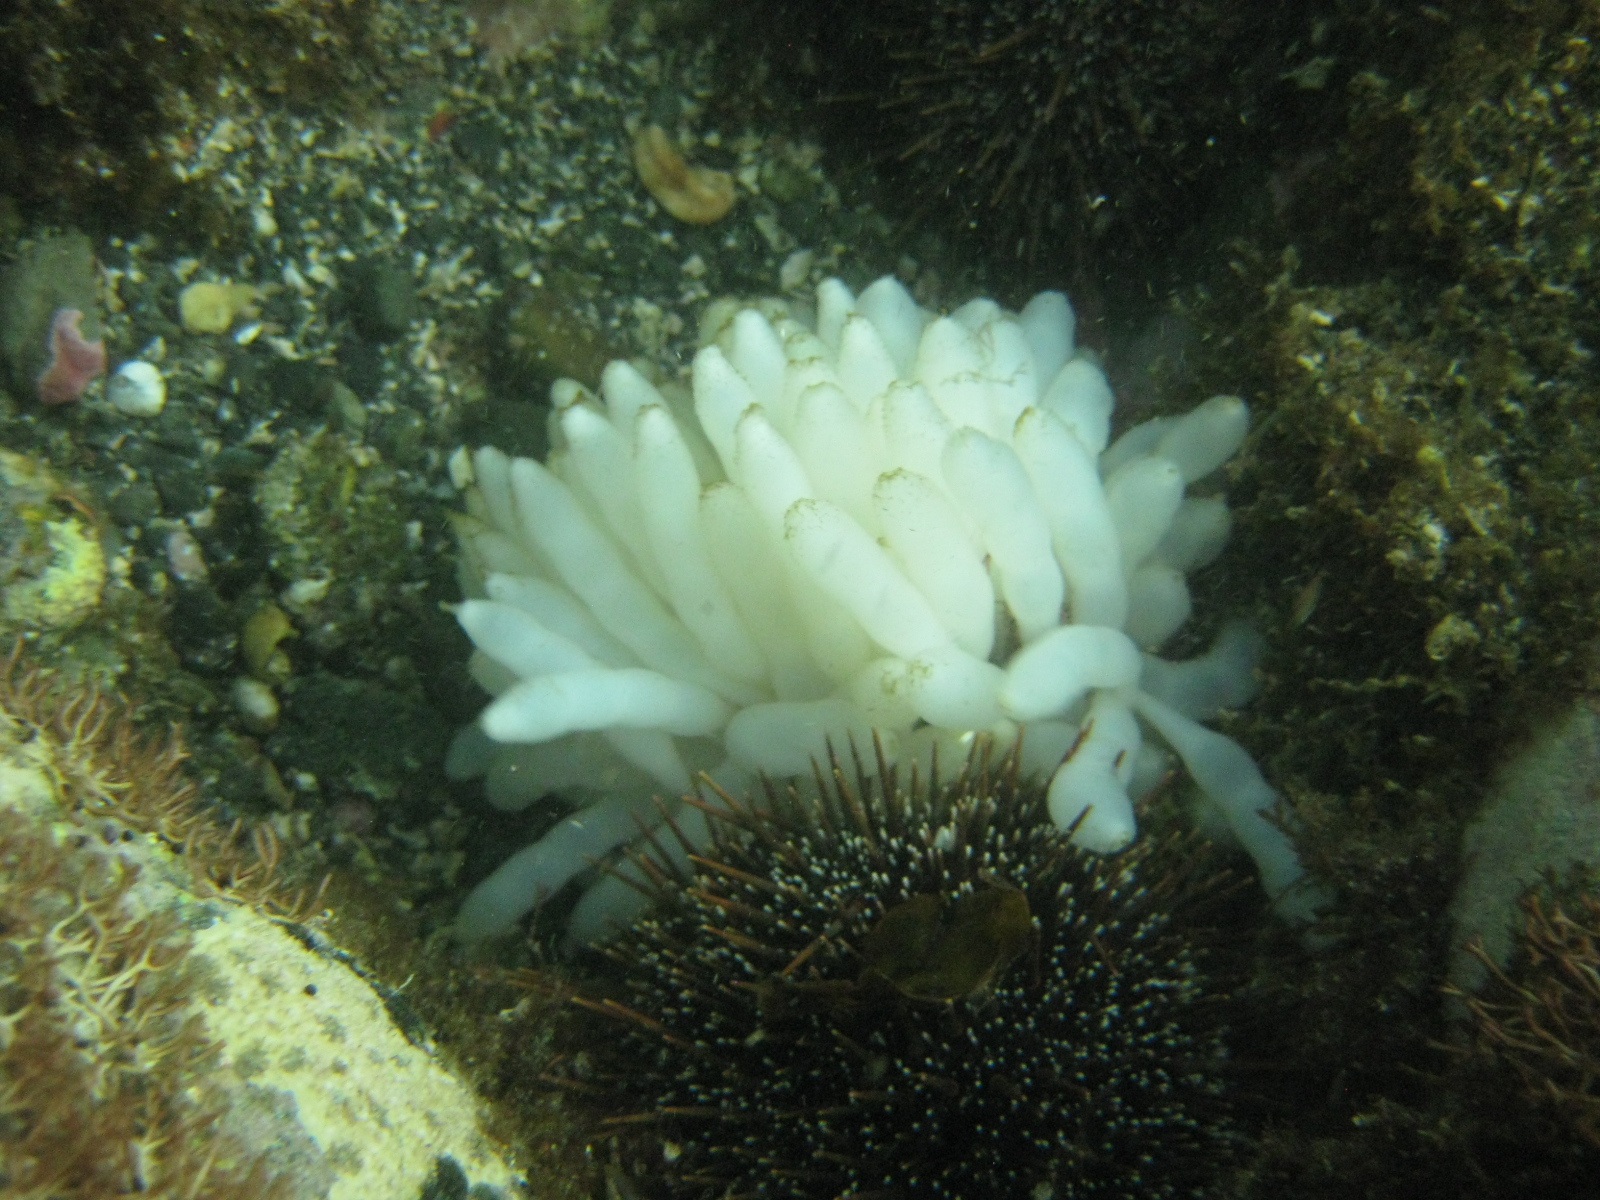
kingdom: Animalia
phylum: Mollusca
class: Cephalopoda
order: Myopsida
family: Loliginidae
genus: Sepioteuthis
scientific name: Sepioteuthis australis
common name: Southern reef squid
